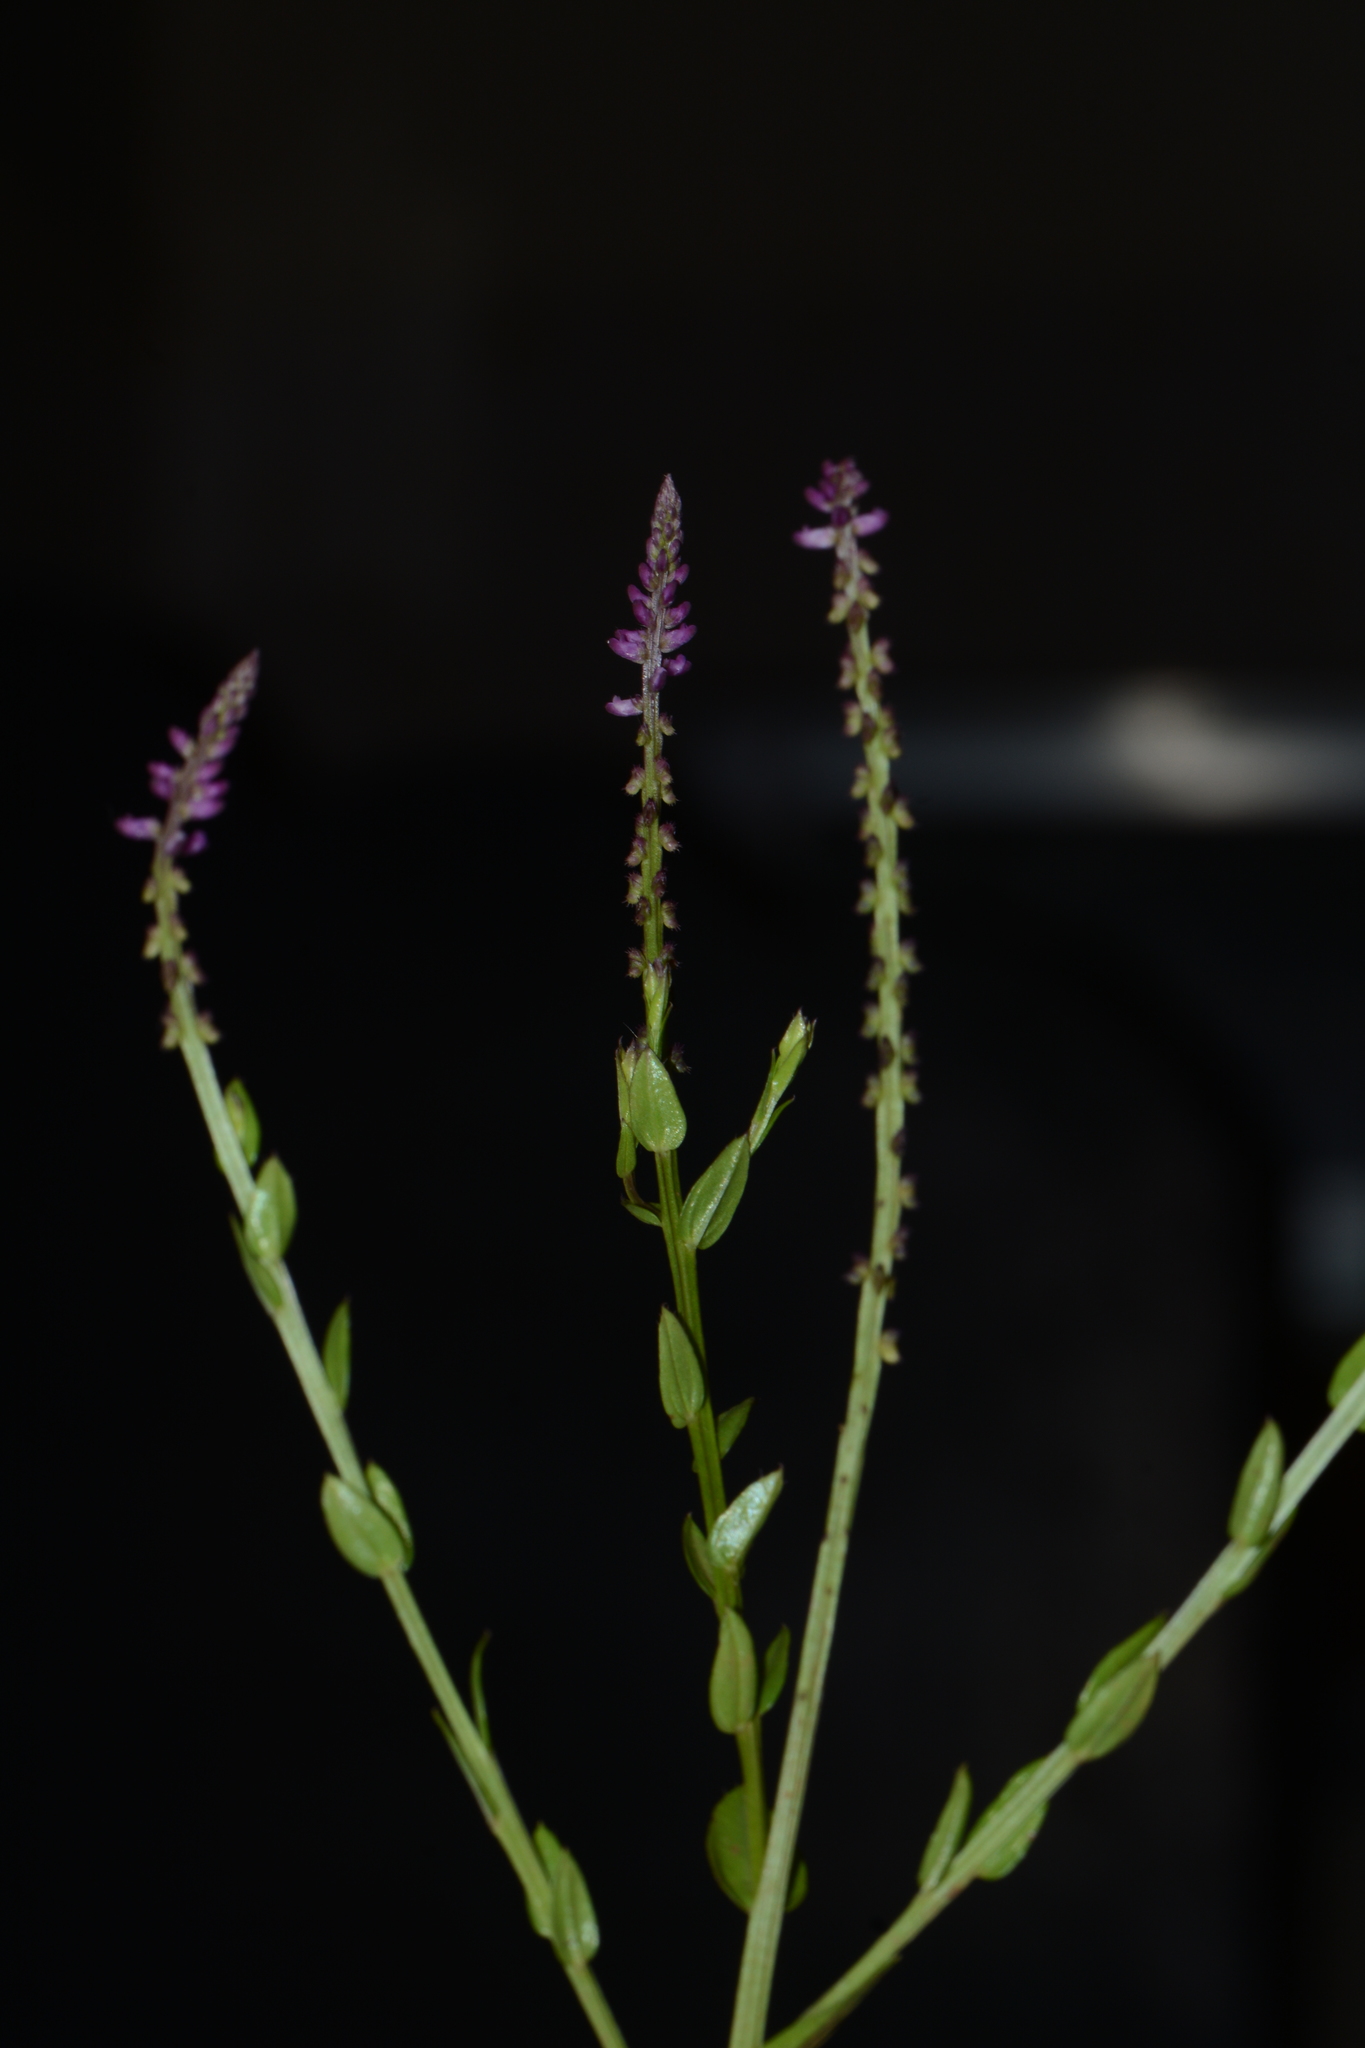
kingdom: Plantae
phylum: Tracheophyta
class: Magnoliopsida
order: Fabales
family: Polygalaceae
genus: Salomonia
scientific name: Salomonia ciliata
